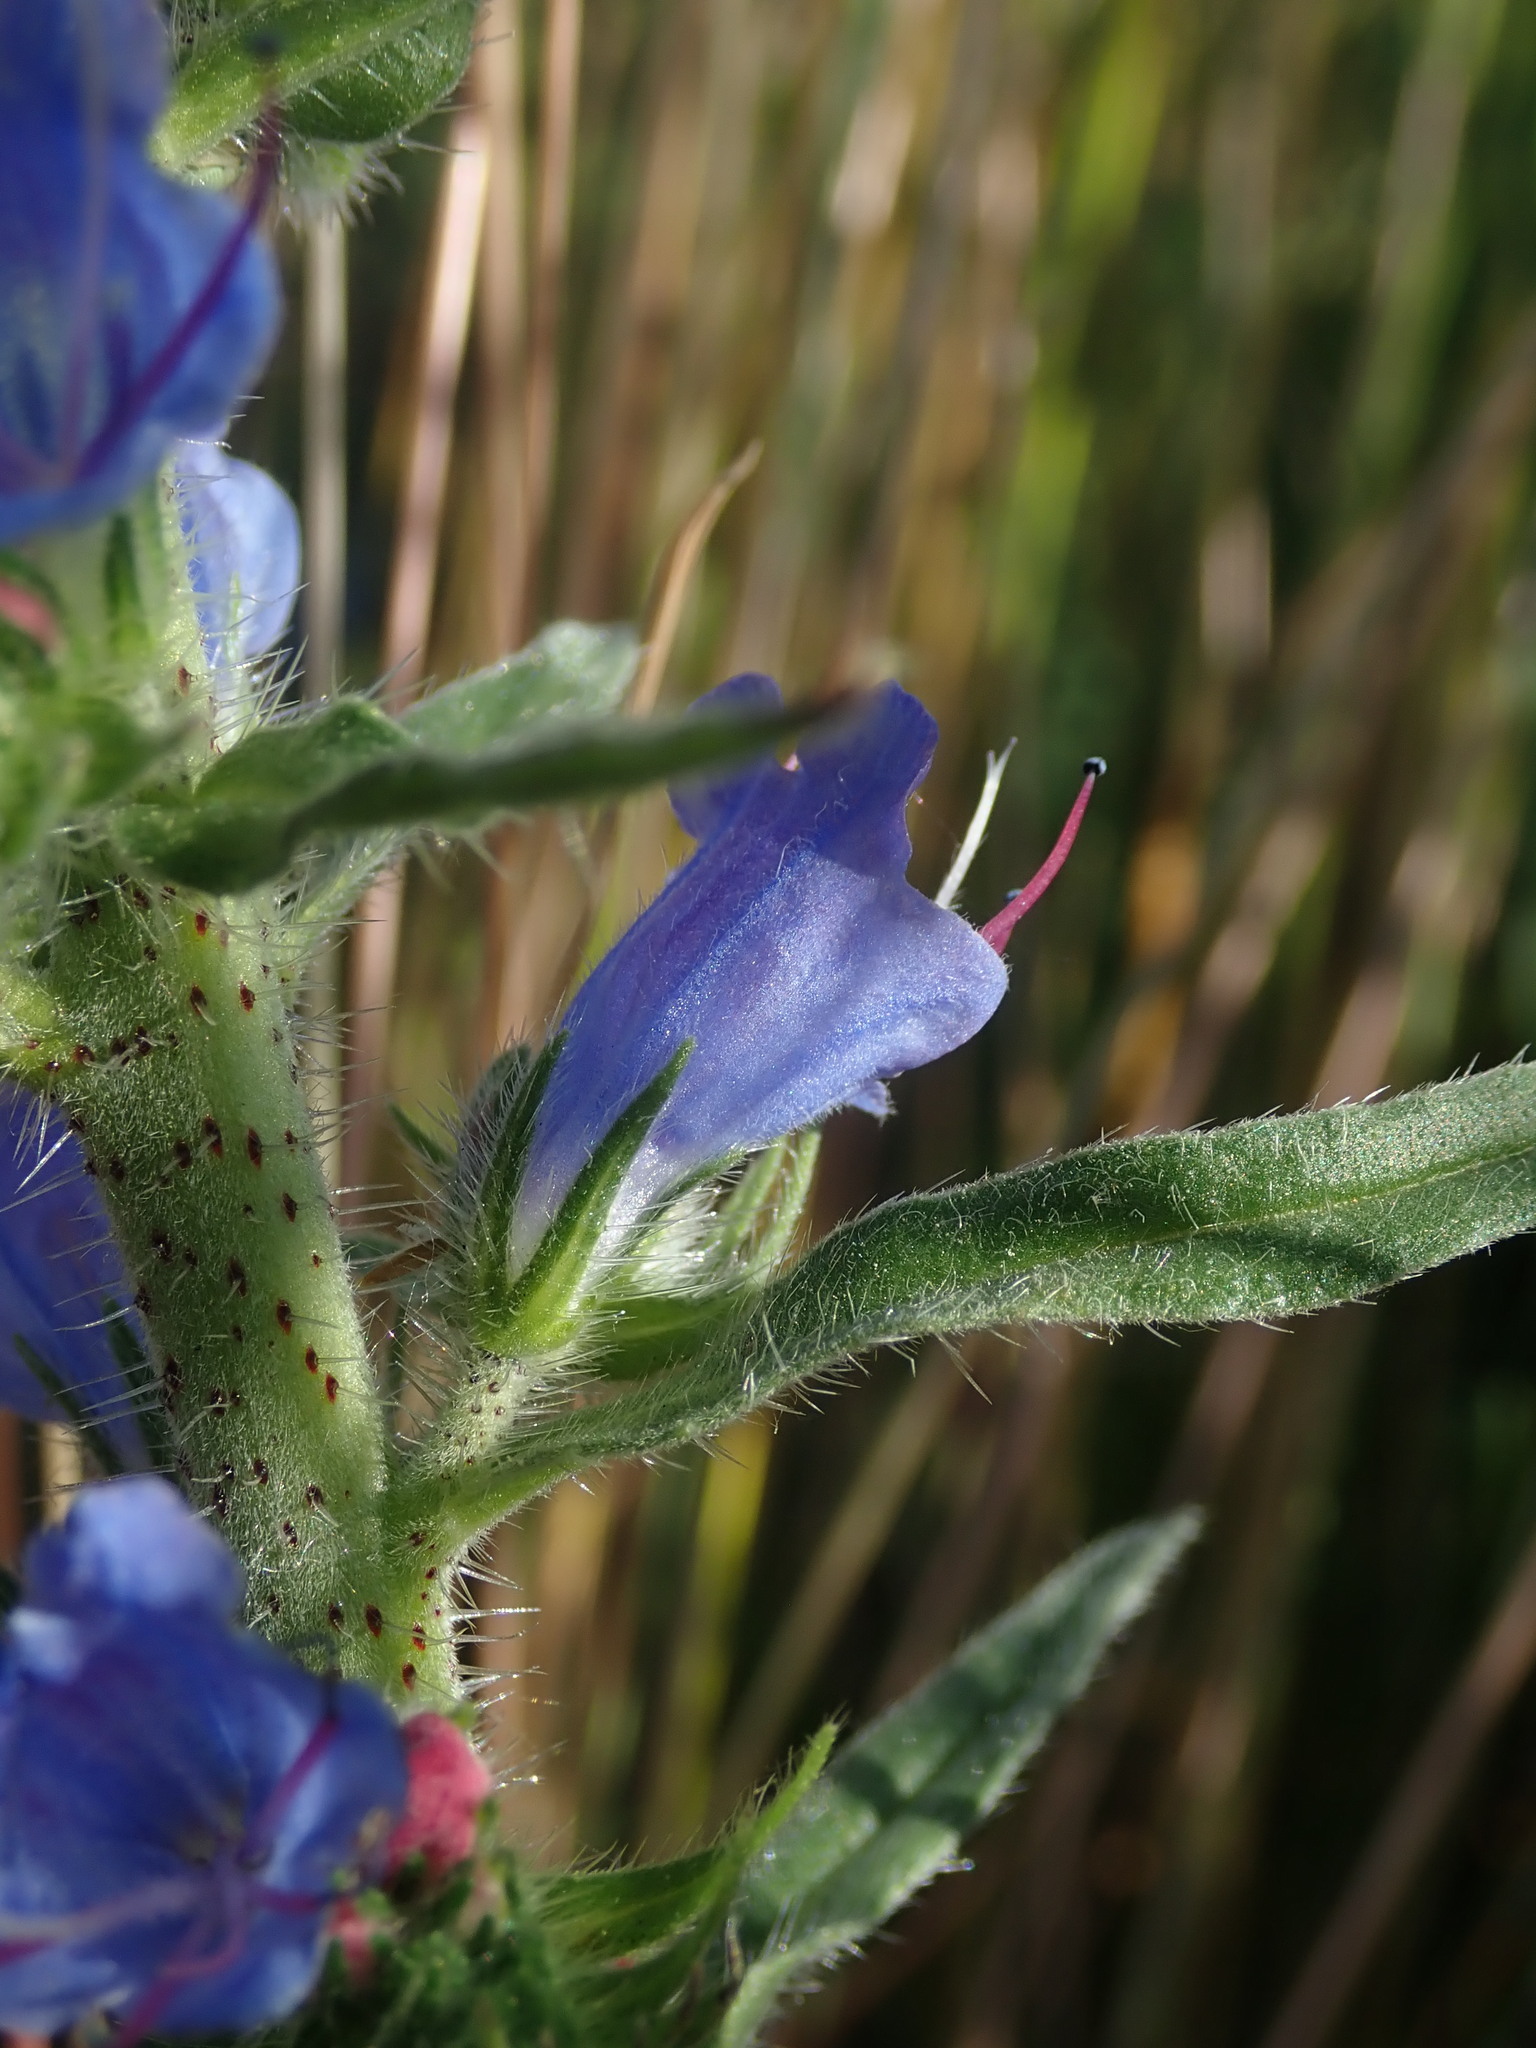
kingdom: Plantae
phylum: Tracheophyta
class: Magnoliopsida
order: Boraginales
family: Boraginaceae
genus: Echium
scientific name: Echium vulgare
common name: Common viper's bugloss
